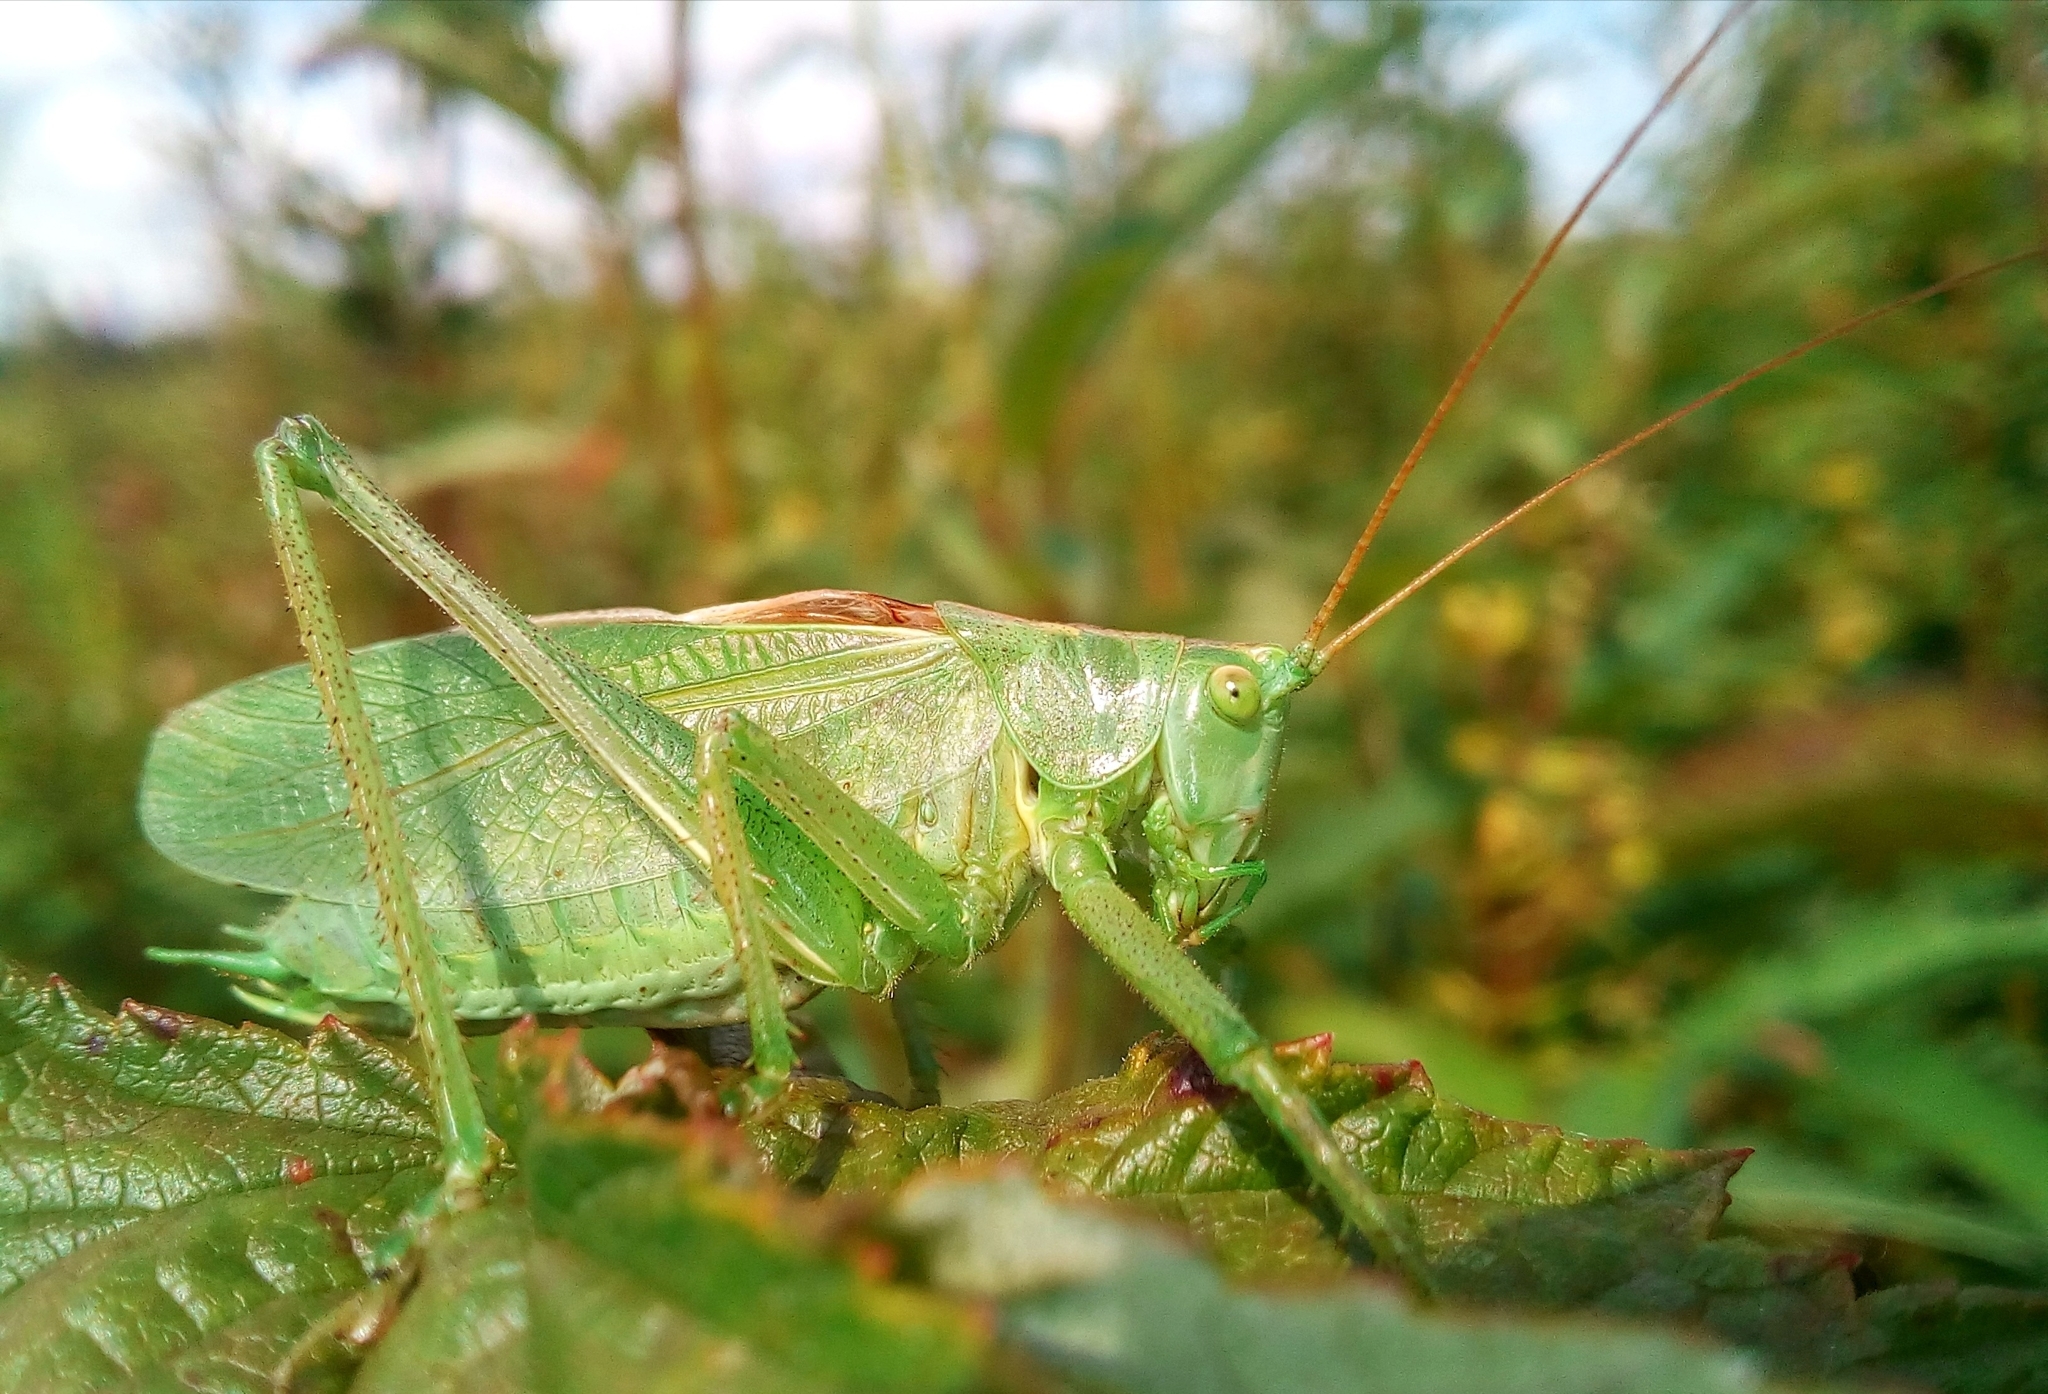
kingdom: Animalia
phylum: Arthropoda
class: Insecta
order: Orthoptera
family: Tettigoniidae
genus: Tettigonia
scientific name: Tettigonia cantans
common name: Upland green bush-cricket
